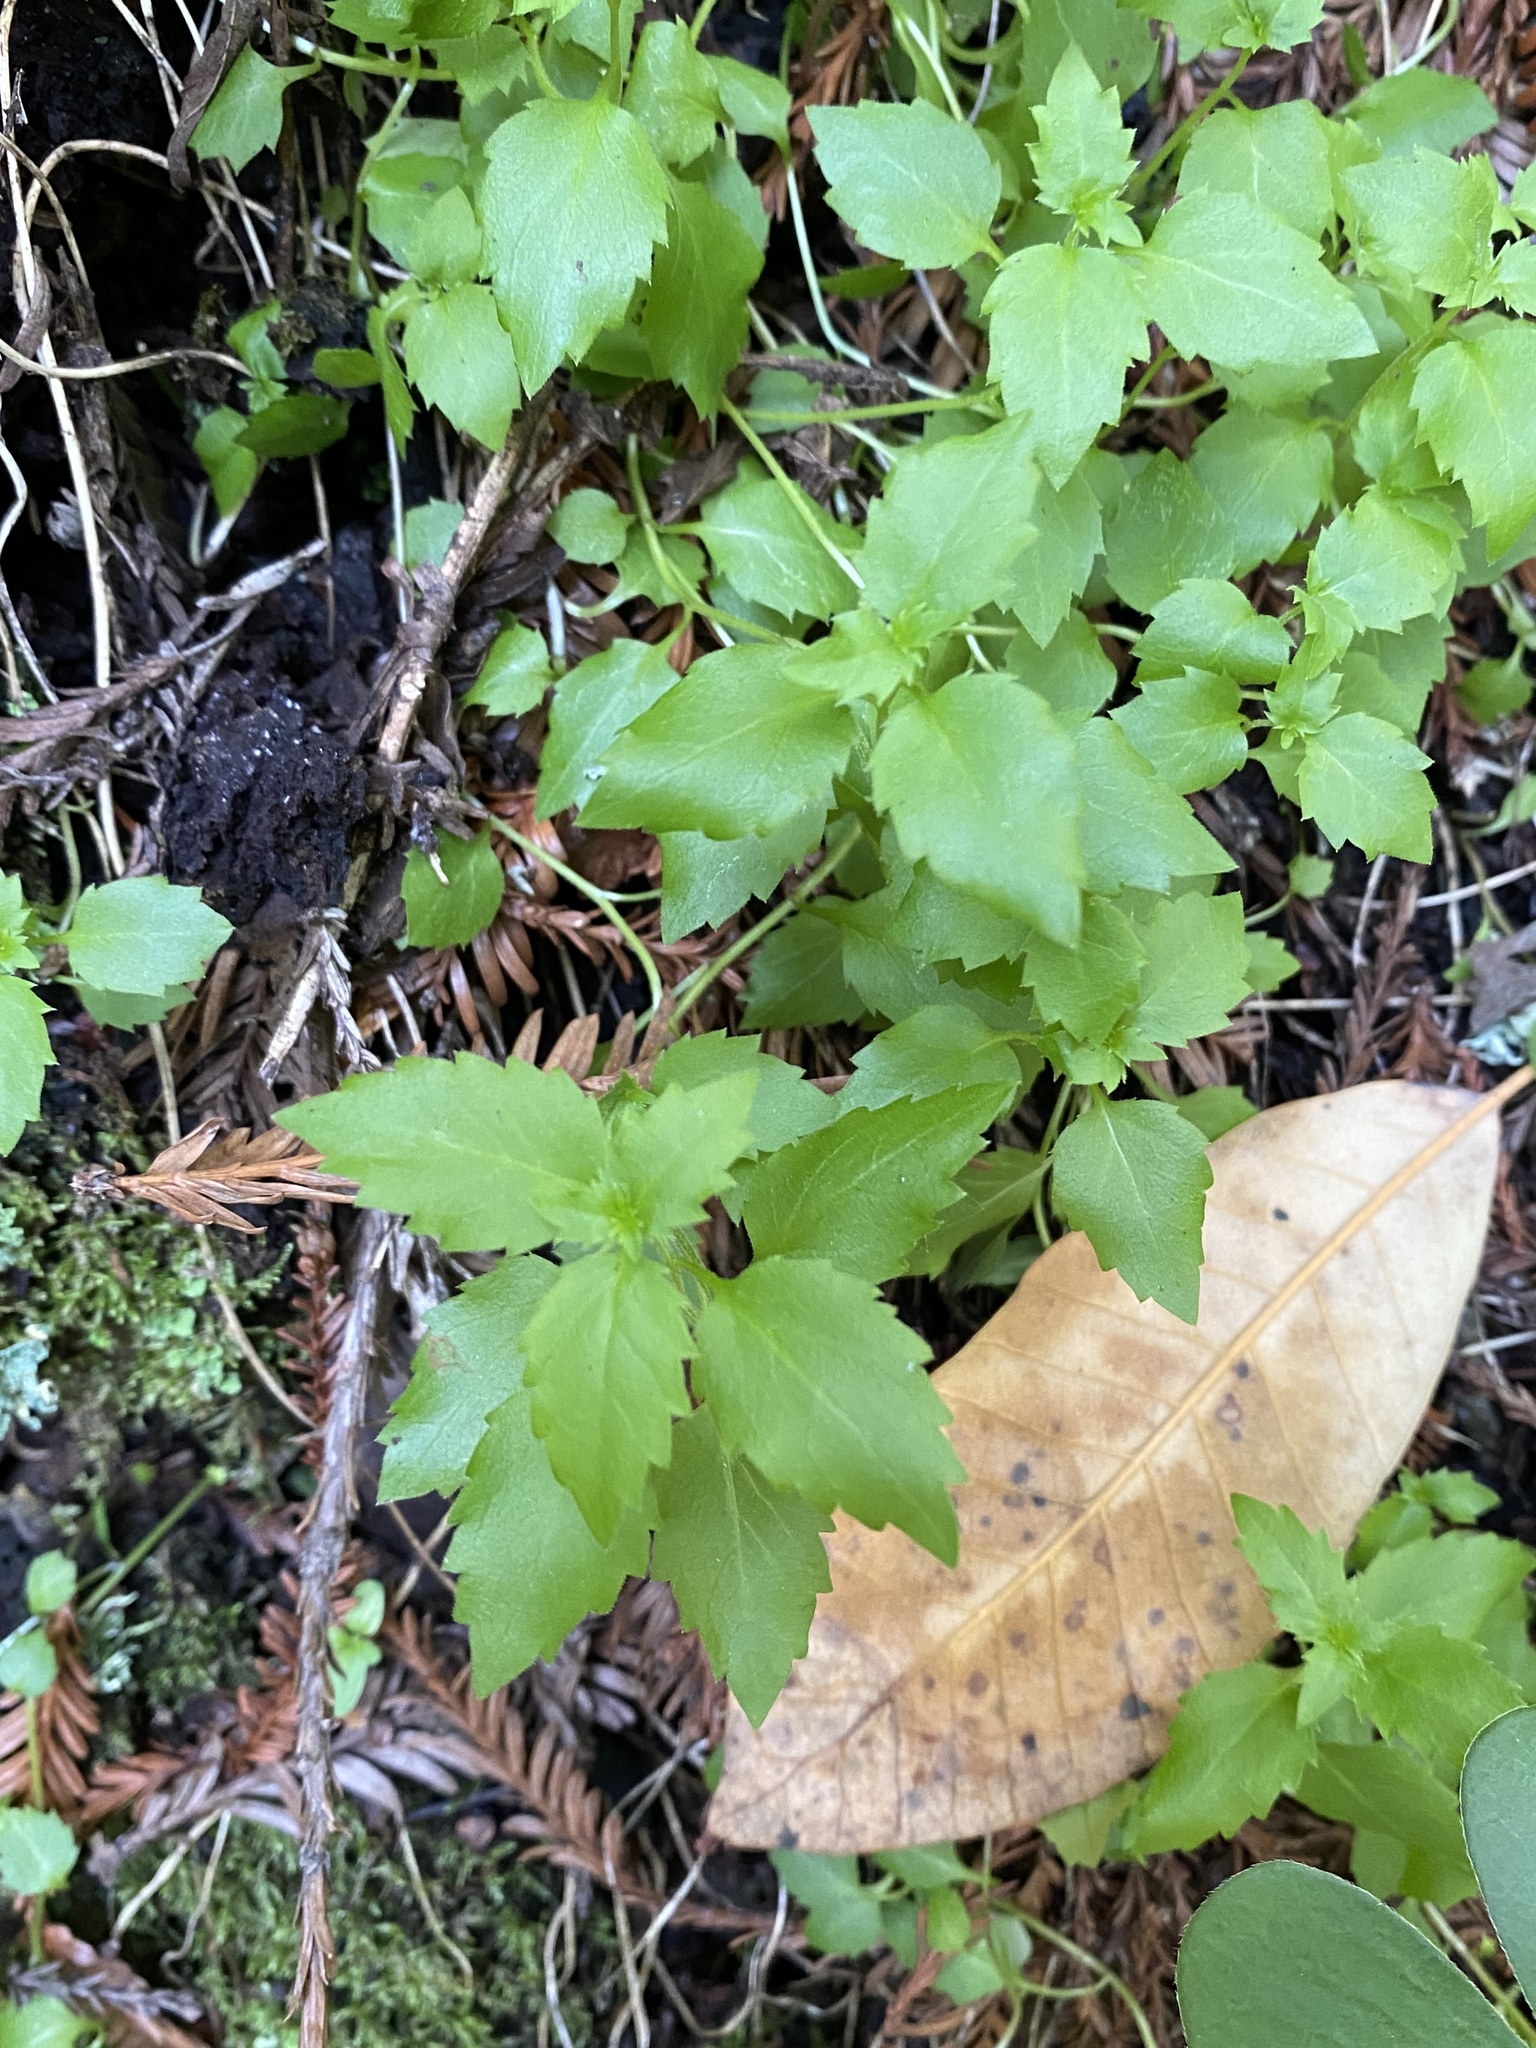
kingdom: Plantae
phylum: Tracheophyta
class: Magnoliopsida
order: Asterales
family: Campanulaceae
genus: Smithiastrum
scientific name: Smithiastrum prenanthoides
